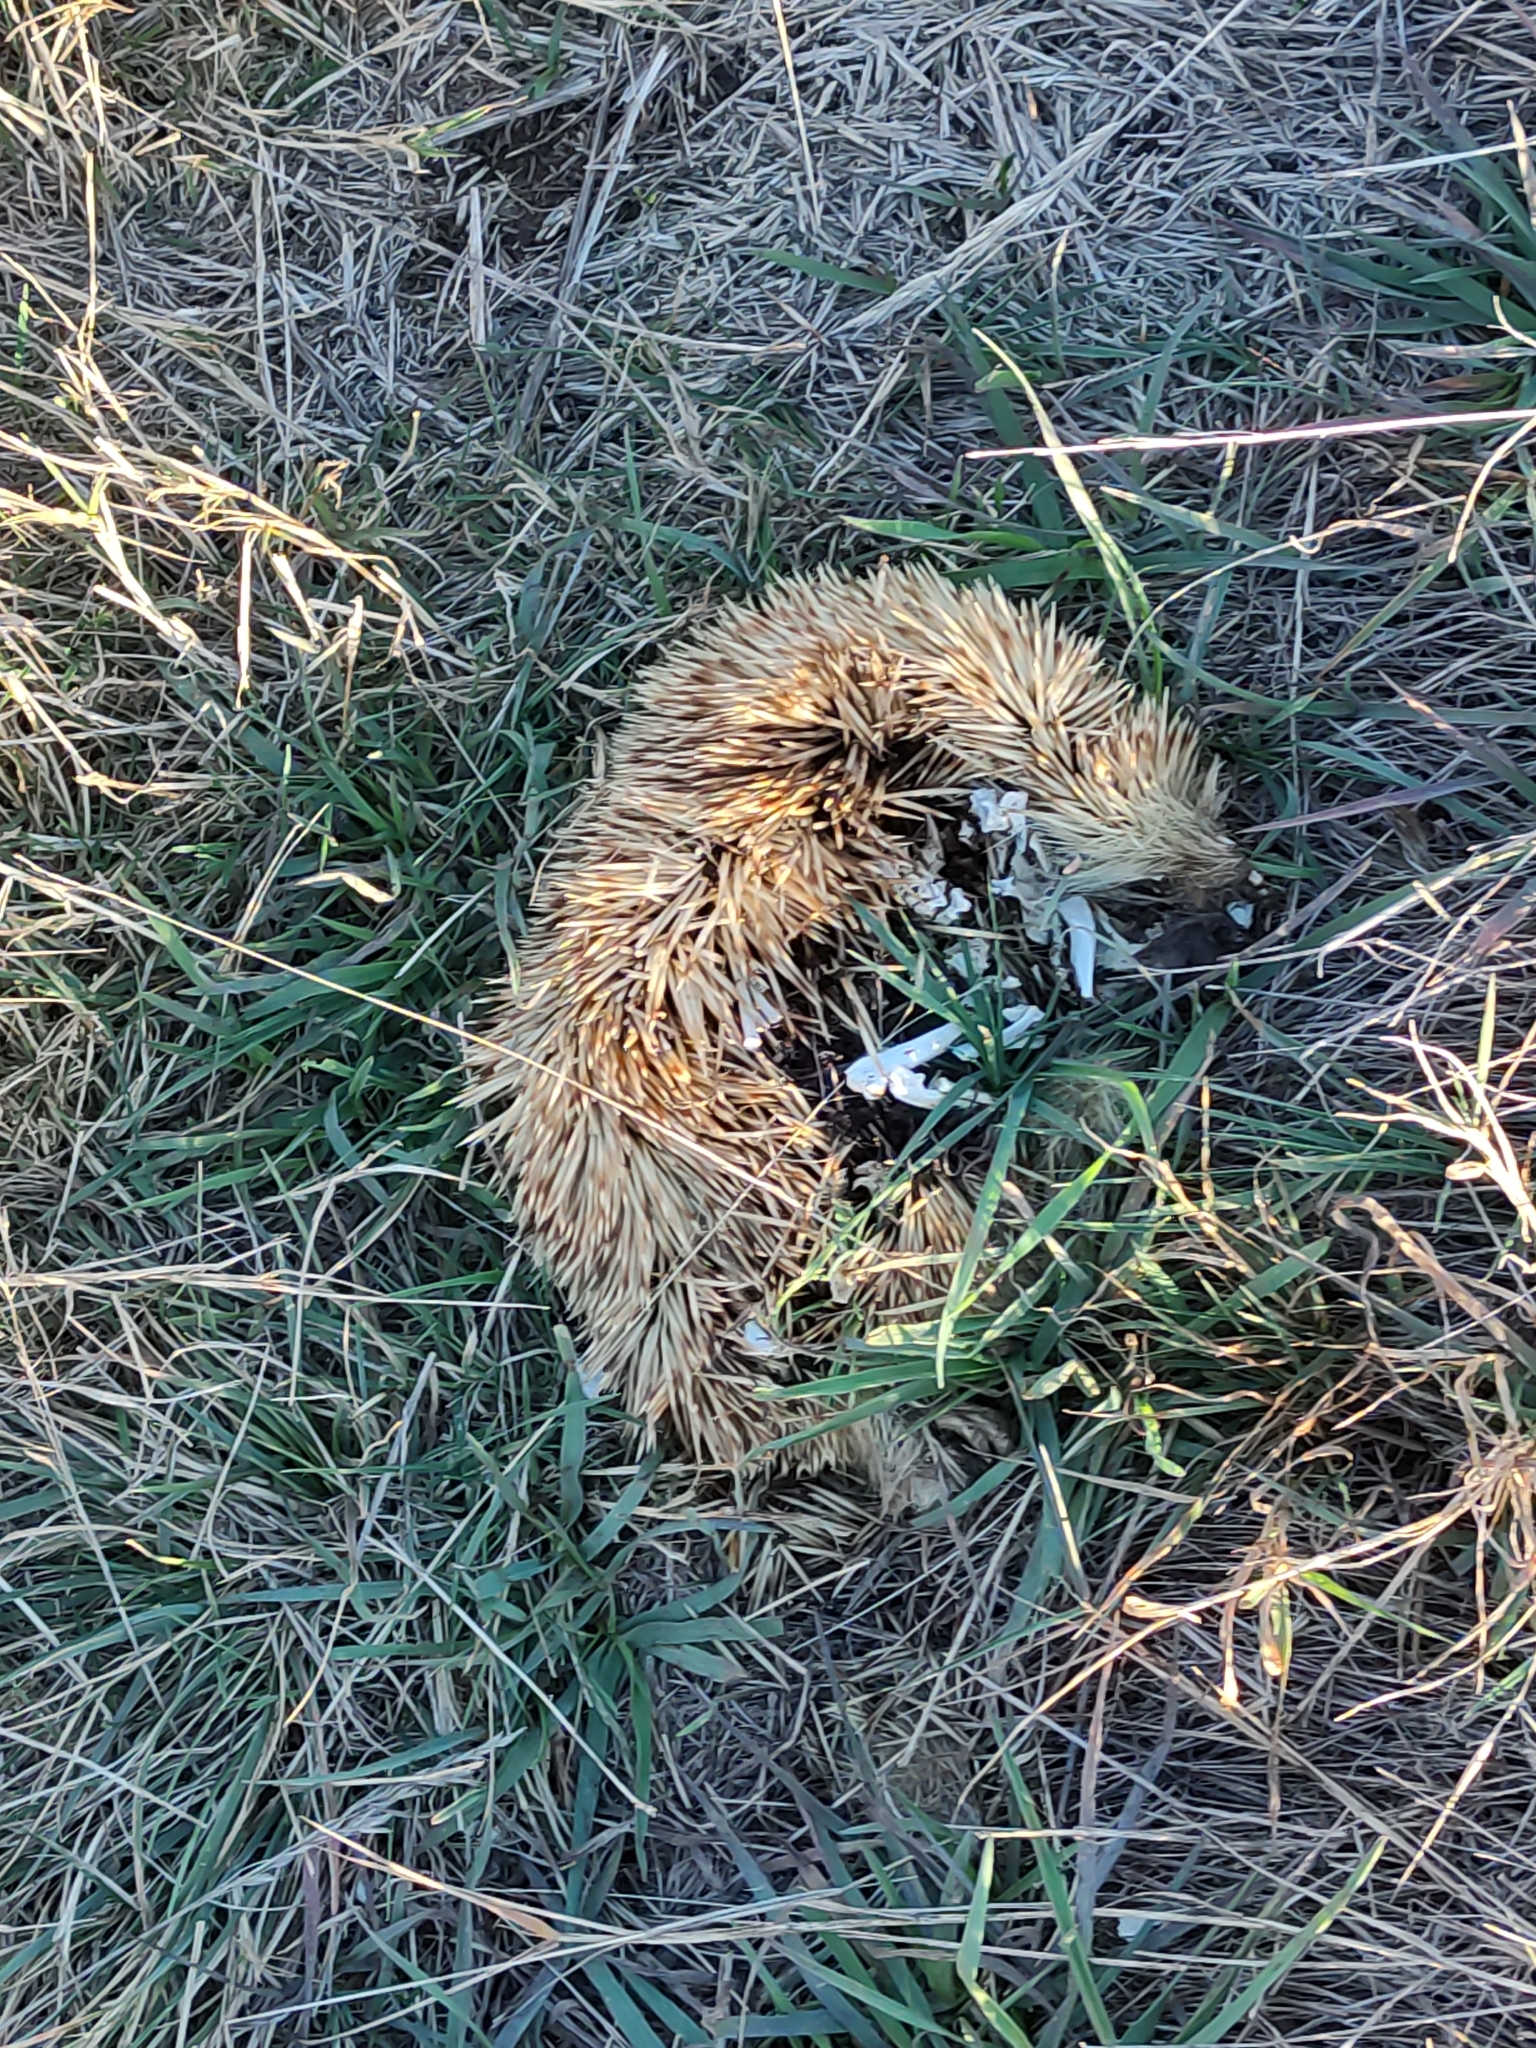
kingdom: Animalia
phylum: Chordata
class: Mammalia
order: Erinaceomorpha
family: Erinaceidae
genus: Erinaceus
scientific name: Erinaceus europaeus
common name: West european hedgehog
